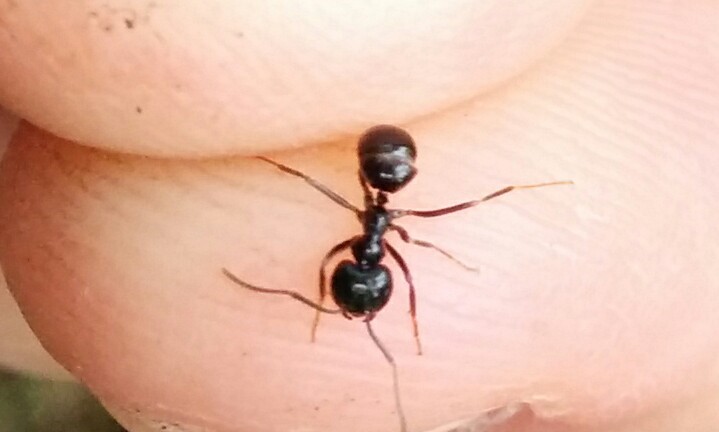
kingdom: Animalia
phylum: Arthropoda
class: Insecta
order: Hymenoptera
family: Formicidae
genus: Lasius
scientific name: Lasius fuliginosus
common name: Jet ant
